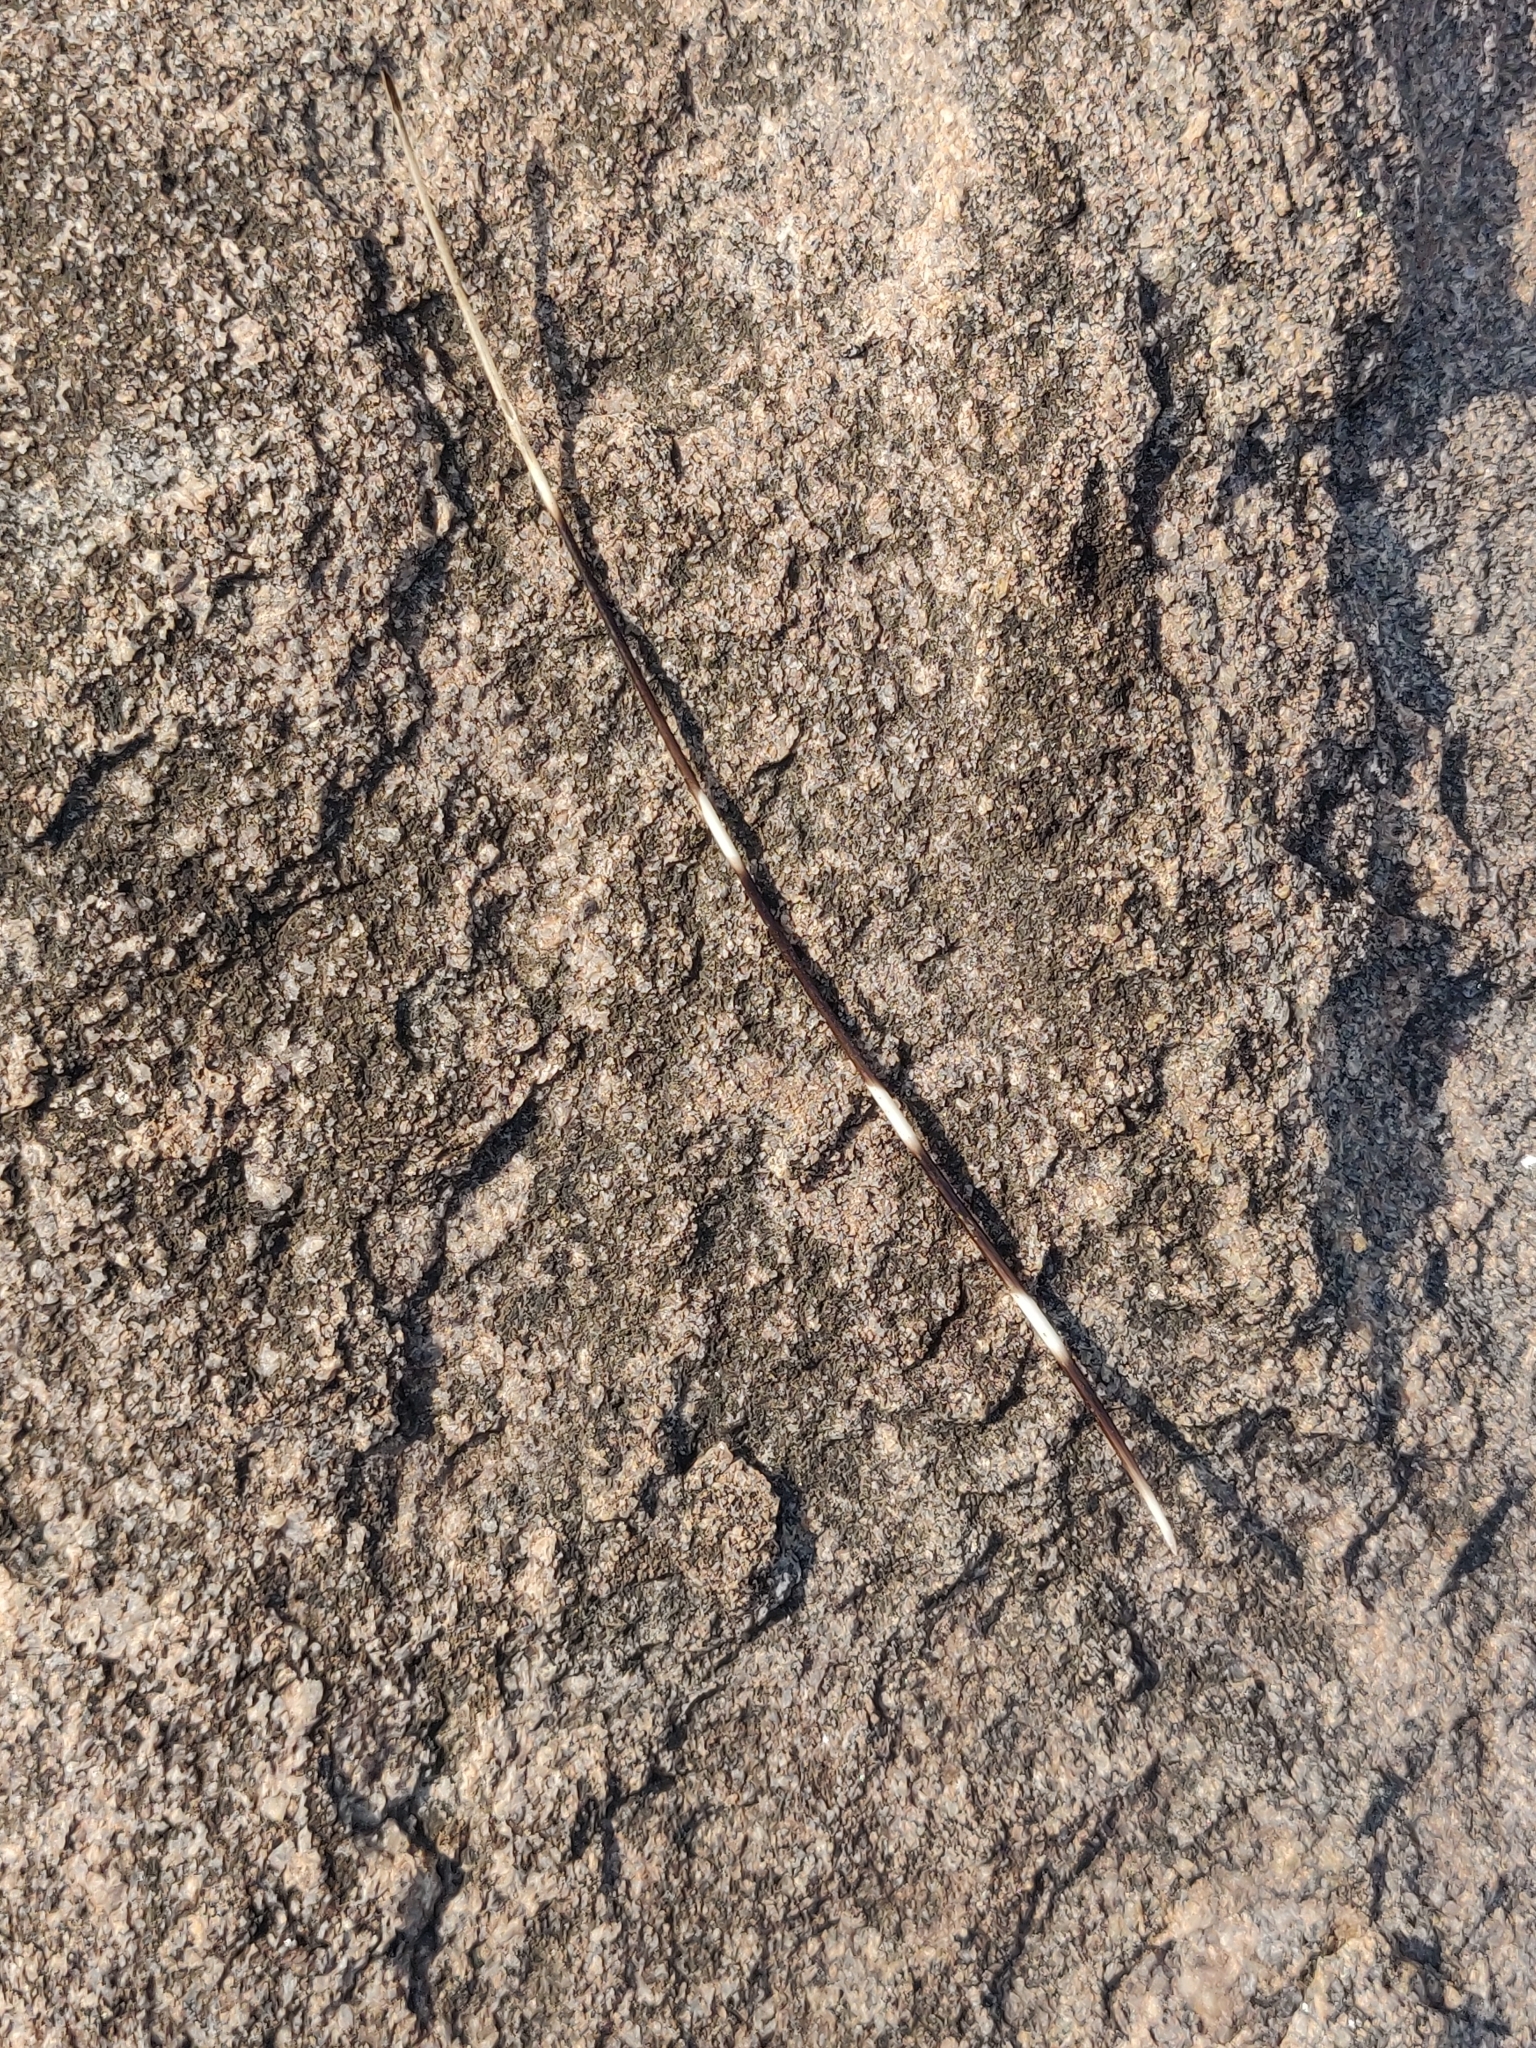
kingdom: Animalia
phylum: Chordata
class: Mammalia
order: Rodentia
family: Hystricidae
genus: Hystrix
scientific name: Hystrix indica
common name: Indian crested porcupine
